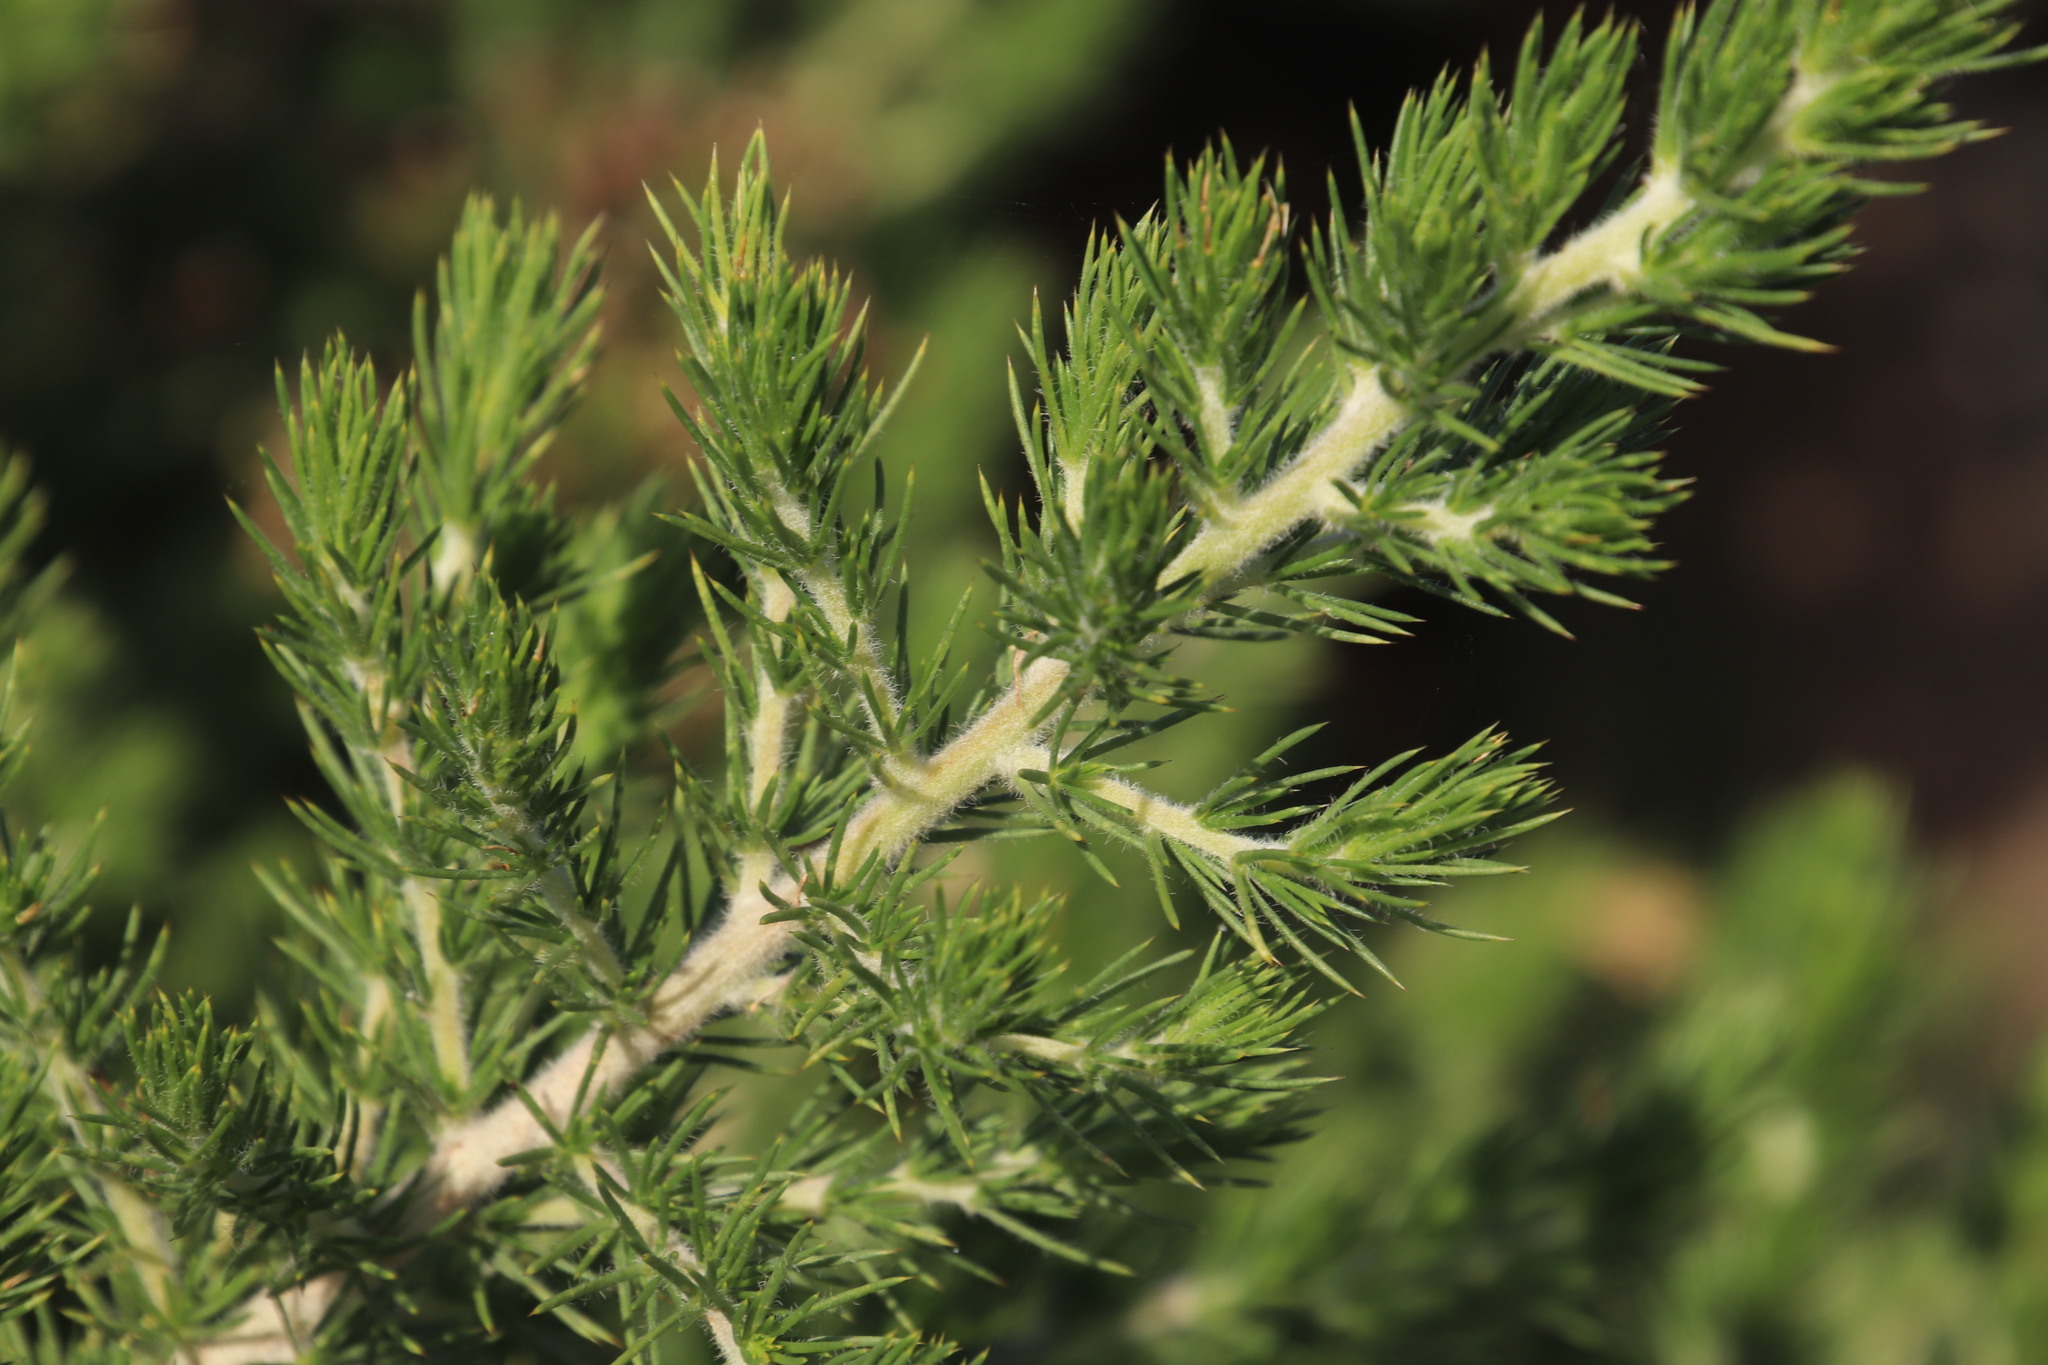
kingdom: Plantae
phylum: Tracheophyta
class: Magnoliopsida
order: Fabales
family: Fabaceae
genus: Aspalathus
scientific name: Aspalathus chenopoda
